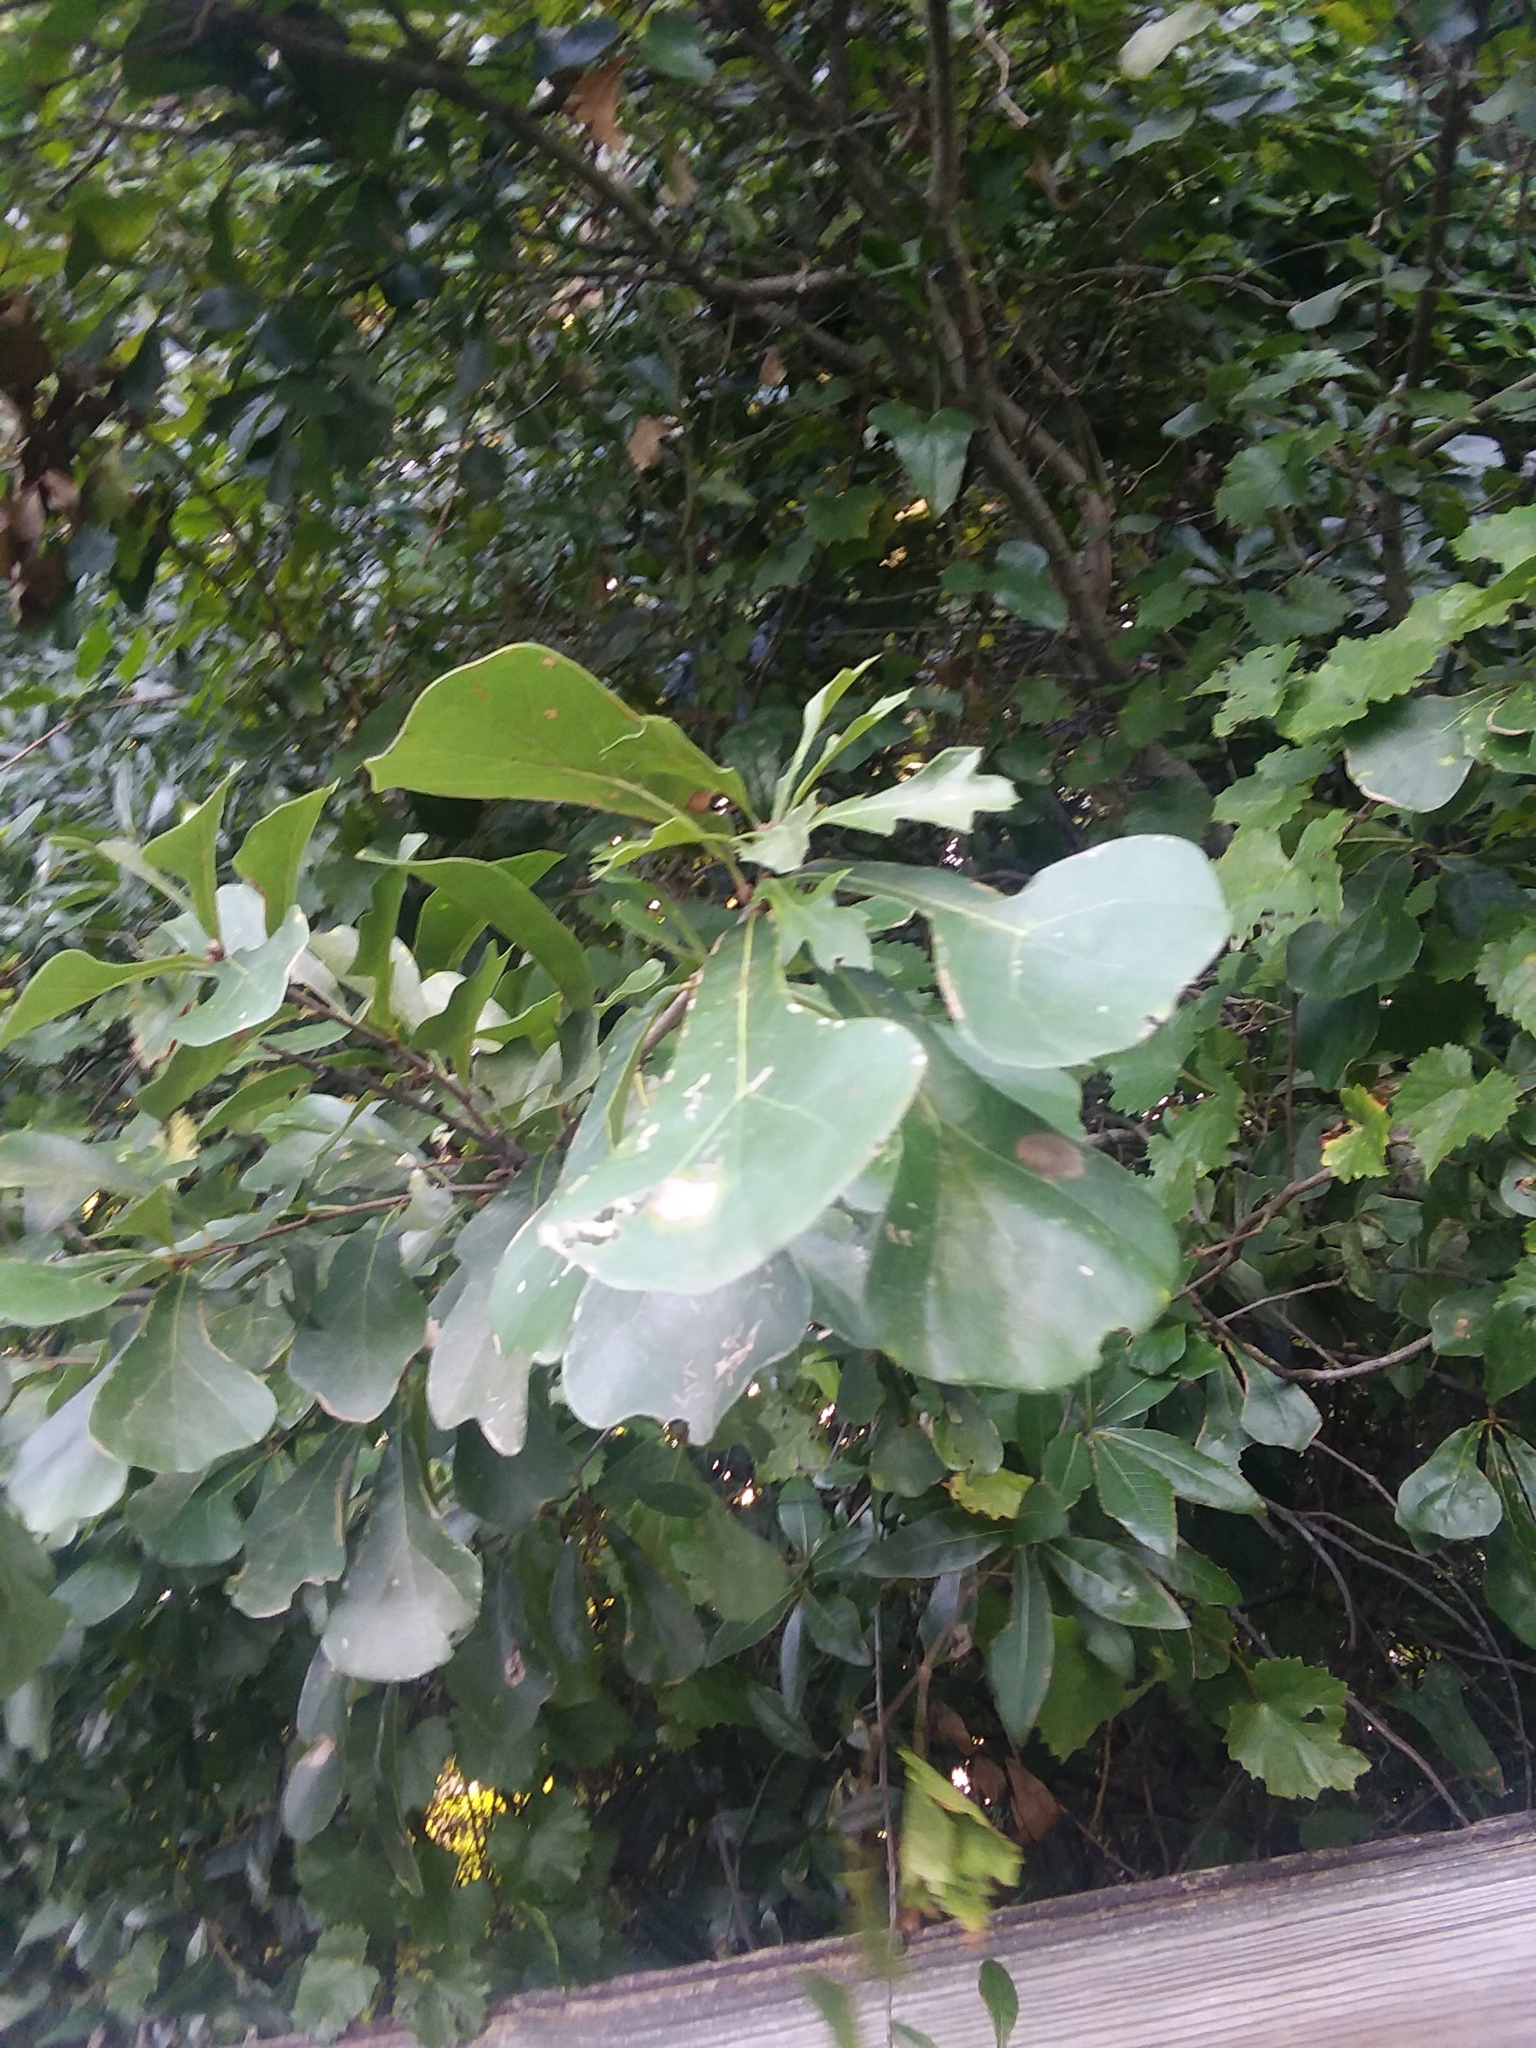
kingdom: Plantae
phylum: Tracheophyta
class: Magnoliopsida
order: Fagales
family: Fagaceae
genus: Quercus
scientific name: Quercus nigra
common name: Water oak
